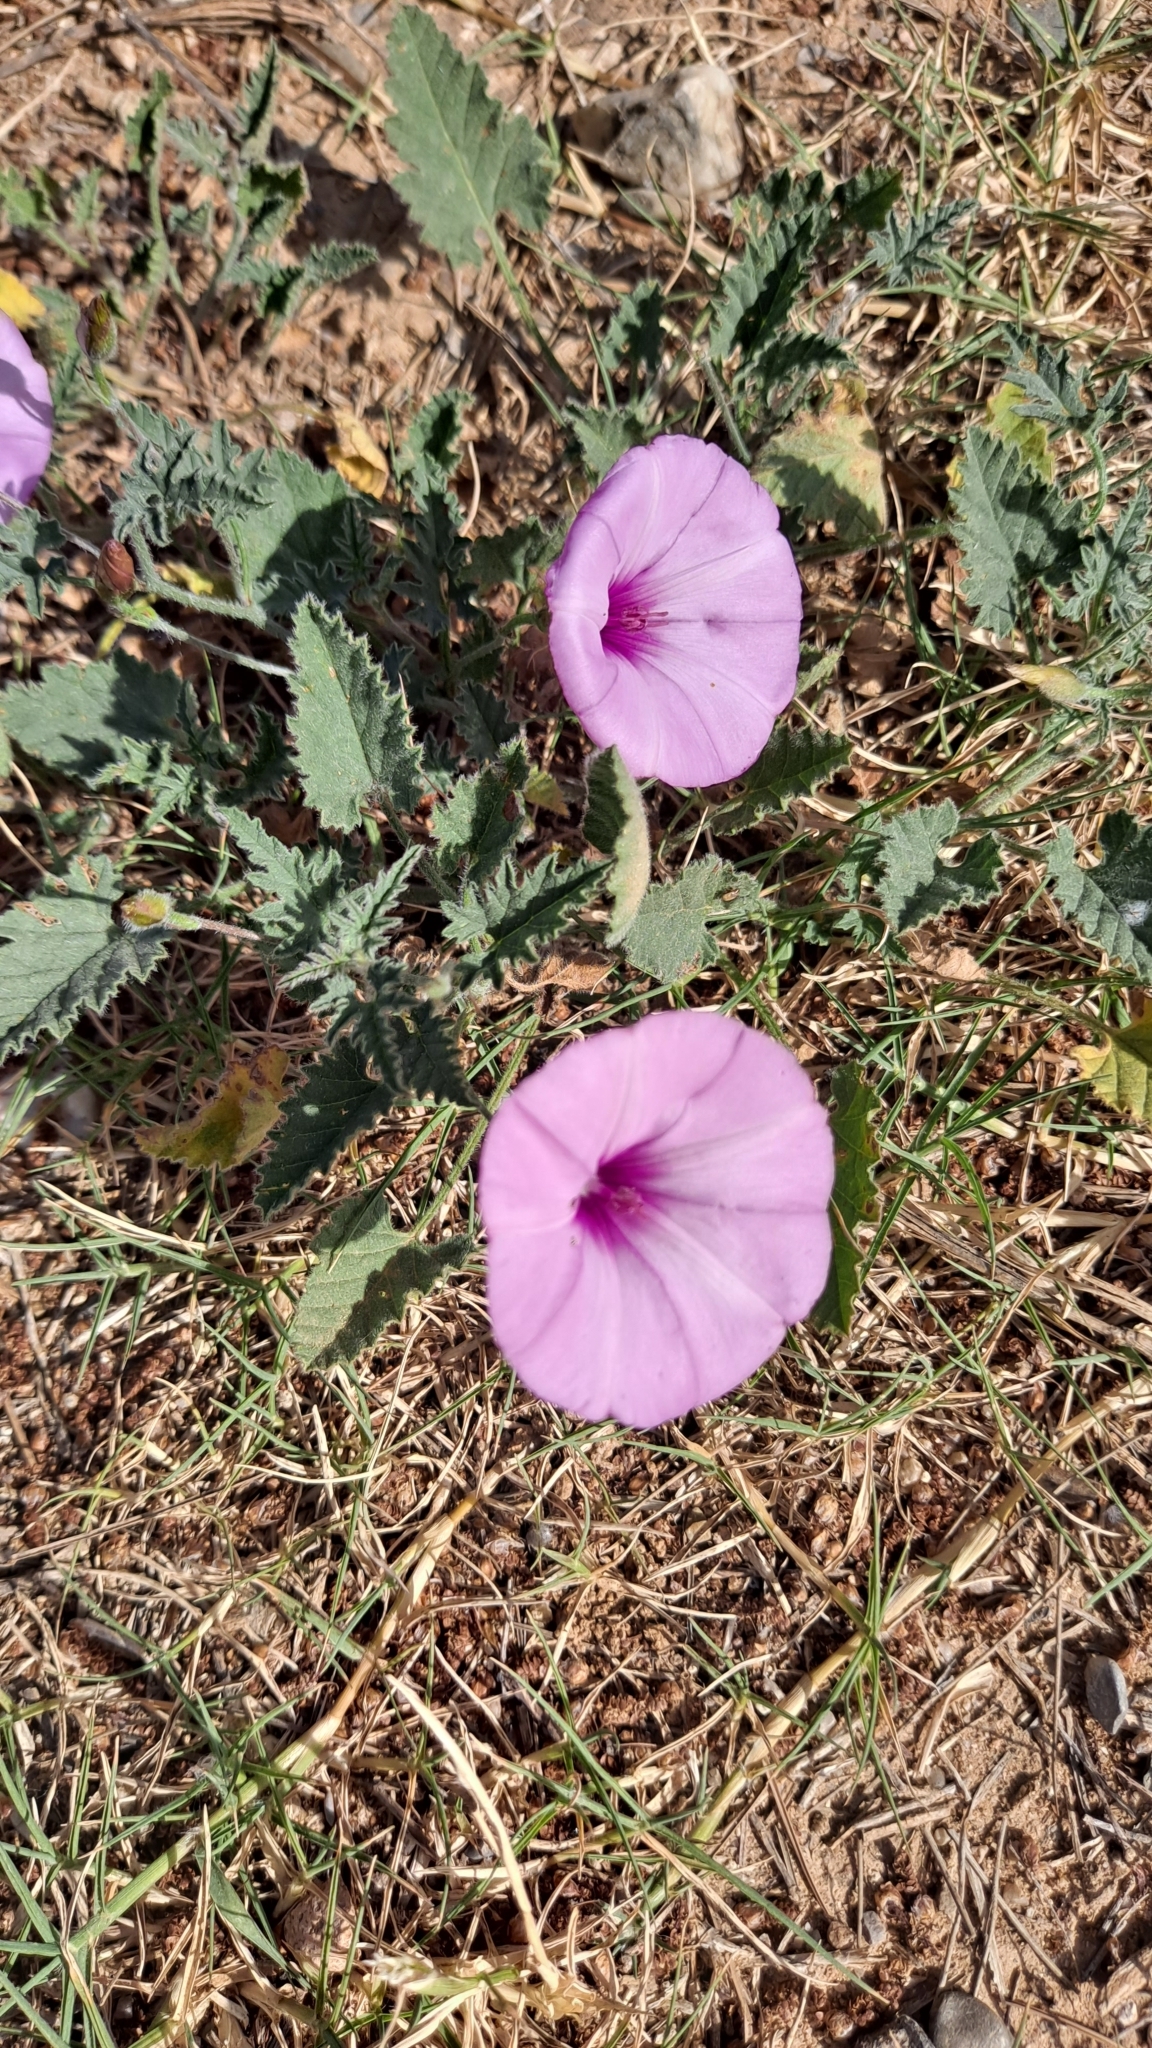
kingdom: Plantae
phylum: Tracheophyta
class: Magnoliopsida
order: Solanales
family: Convolvulaceae
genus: Convolvulus
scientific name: Convolvulus althaeoides
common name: Mallow bindweed
